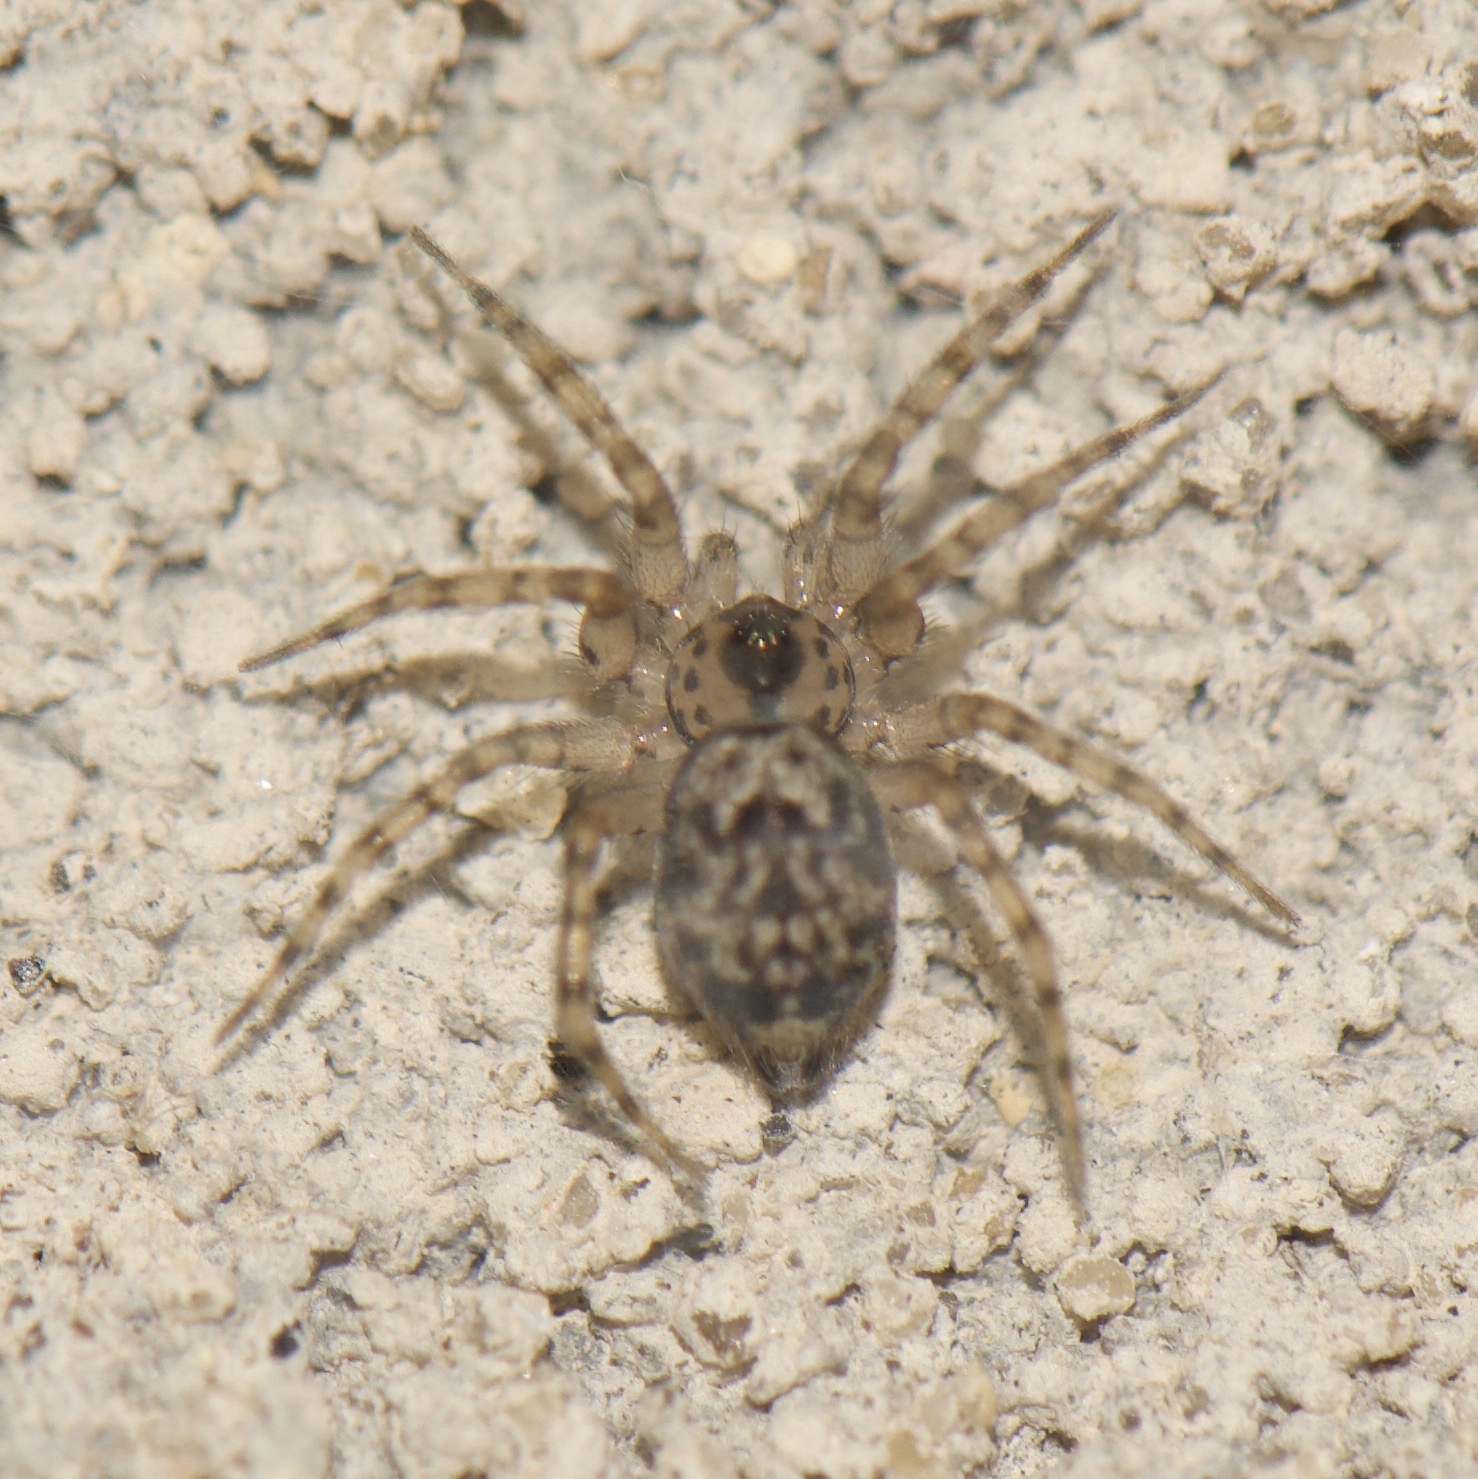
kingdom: Animalia
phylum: Arthropoda
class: Arachnida
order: Araneae
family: Oecobiidae
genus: Oecobius
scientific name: Oecobius navus
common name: Flatmesh weaver
